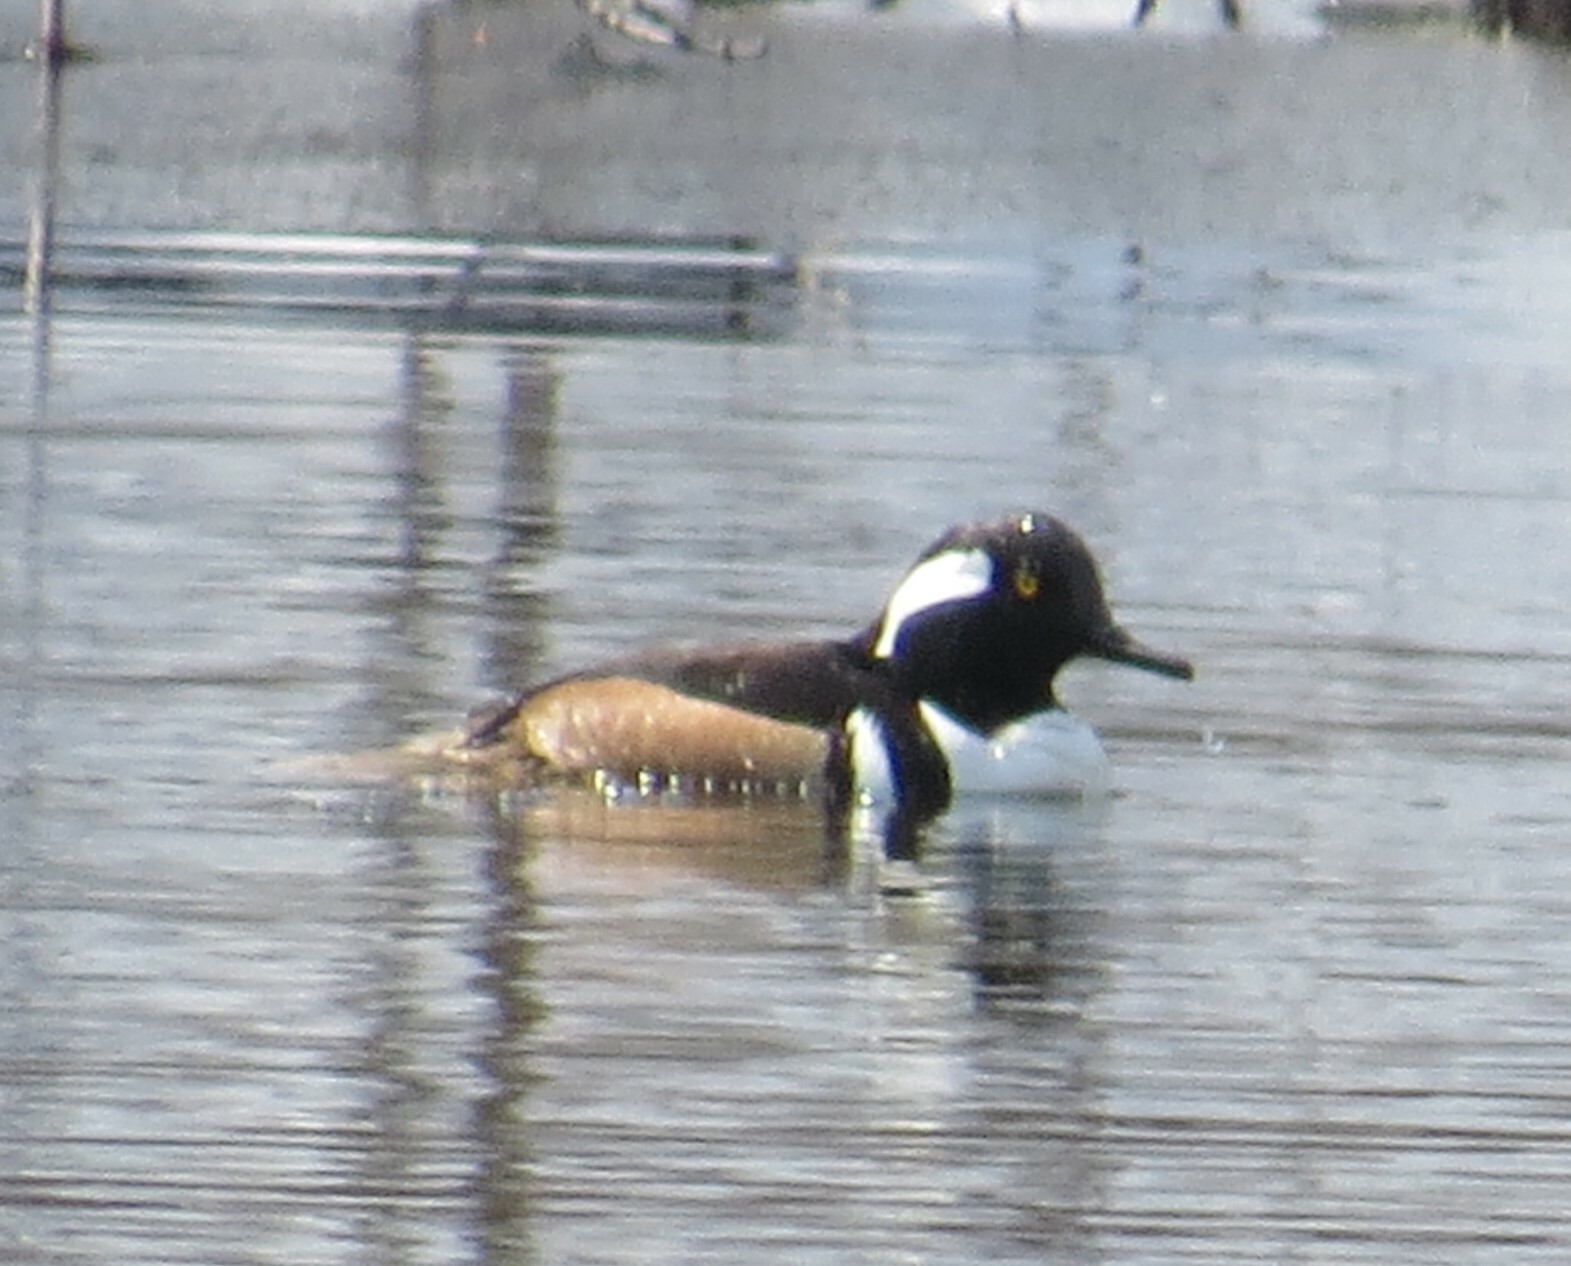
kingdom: Animalia
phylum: Chordata
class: Aves
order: Anseriformes
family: Anatidae
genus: Lophodytes
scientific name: Lophodytes cucullatus
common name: Hooded merganser
